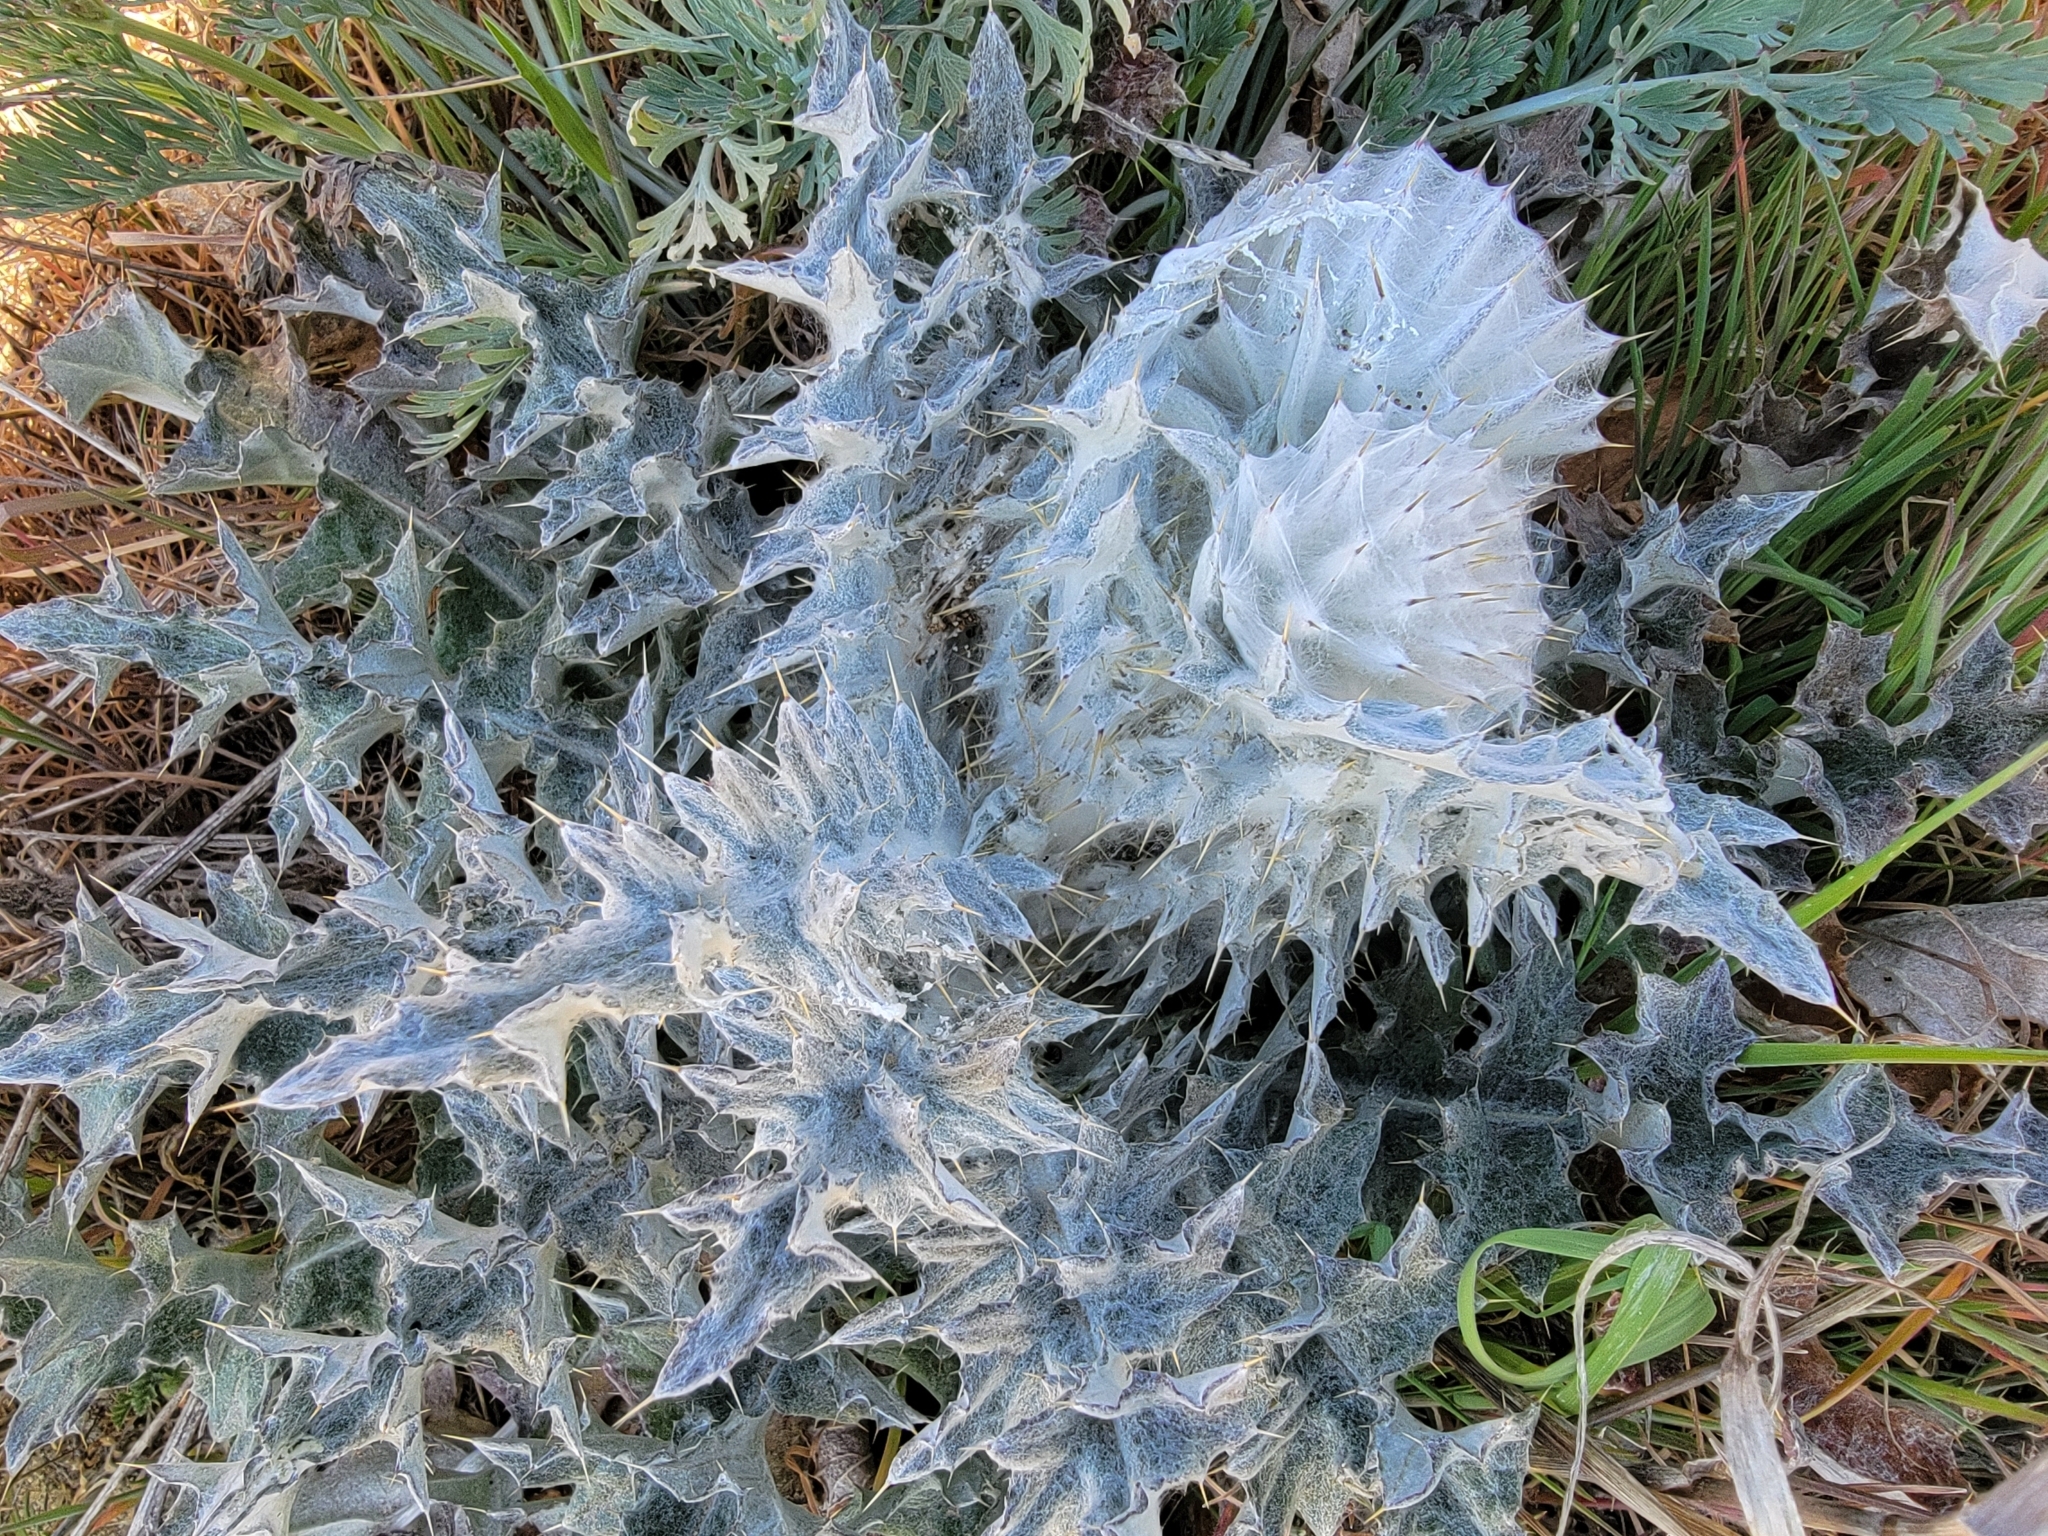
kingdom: Plantae
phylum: Tracheophyta
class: Magnoliopsida
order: Asterales
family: Asteraceae
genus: Cirsium
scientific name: Cirsium occidentale
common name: Western thistle
